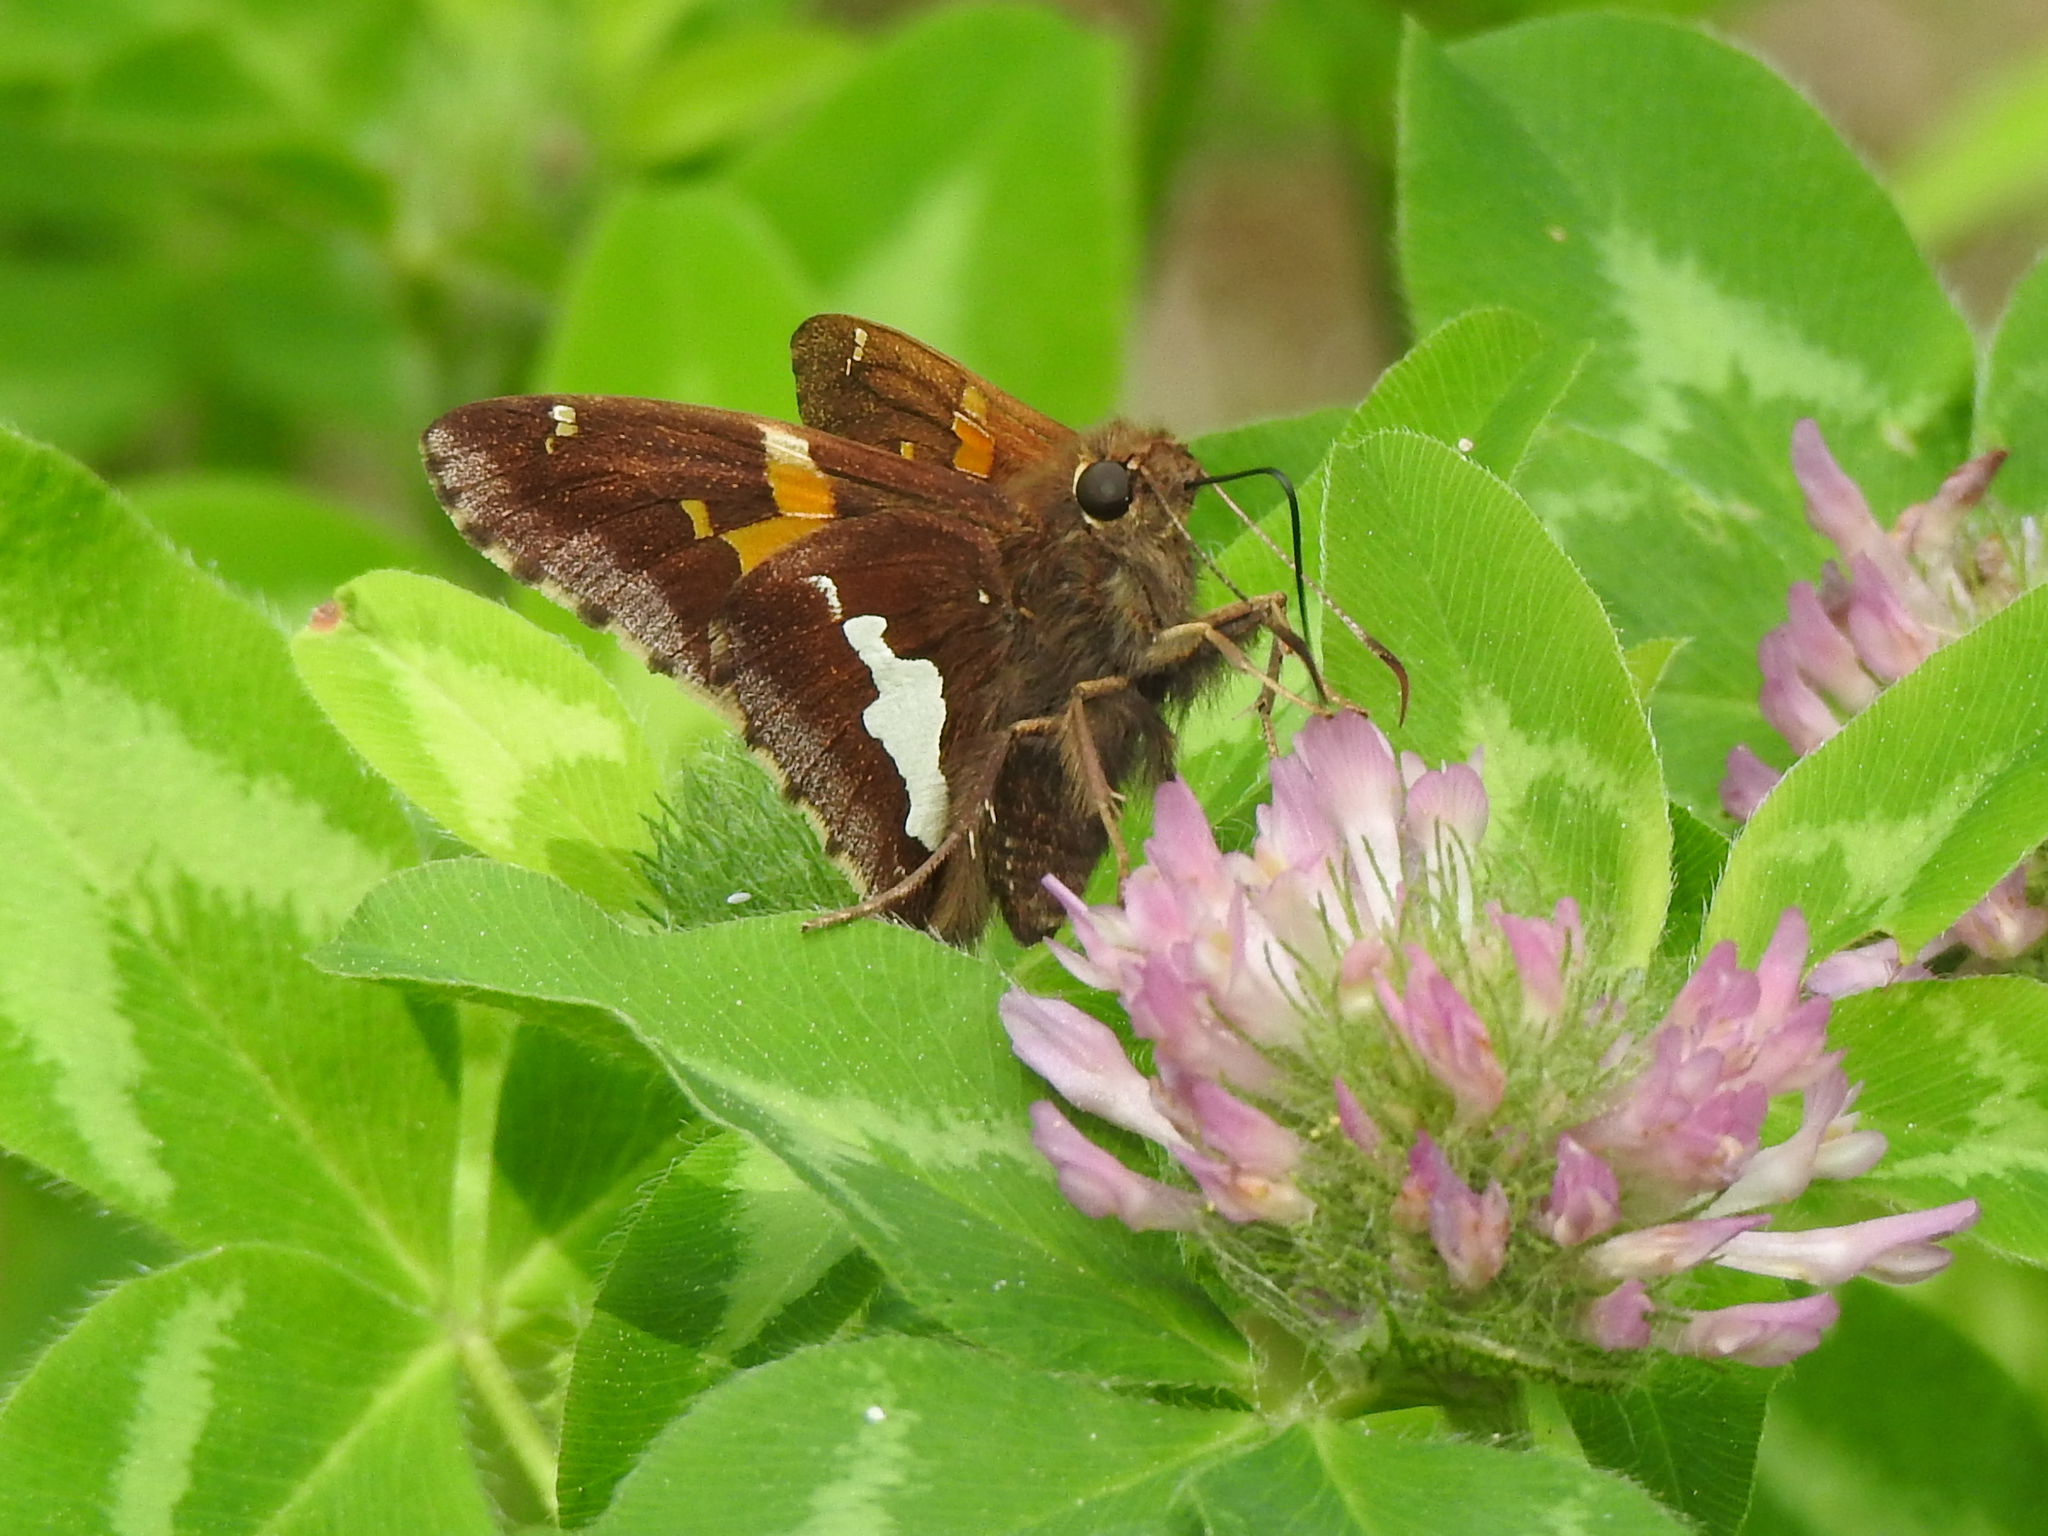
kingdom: Animalia
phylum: Arthropoda
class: Insecta
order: Lepidoptera
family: Hesperiidae
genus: Epargyreus
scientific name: Epargyreus clarus
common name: Silver-spotted skipper
